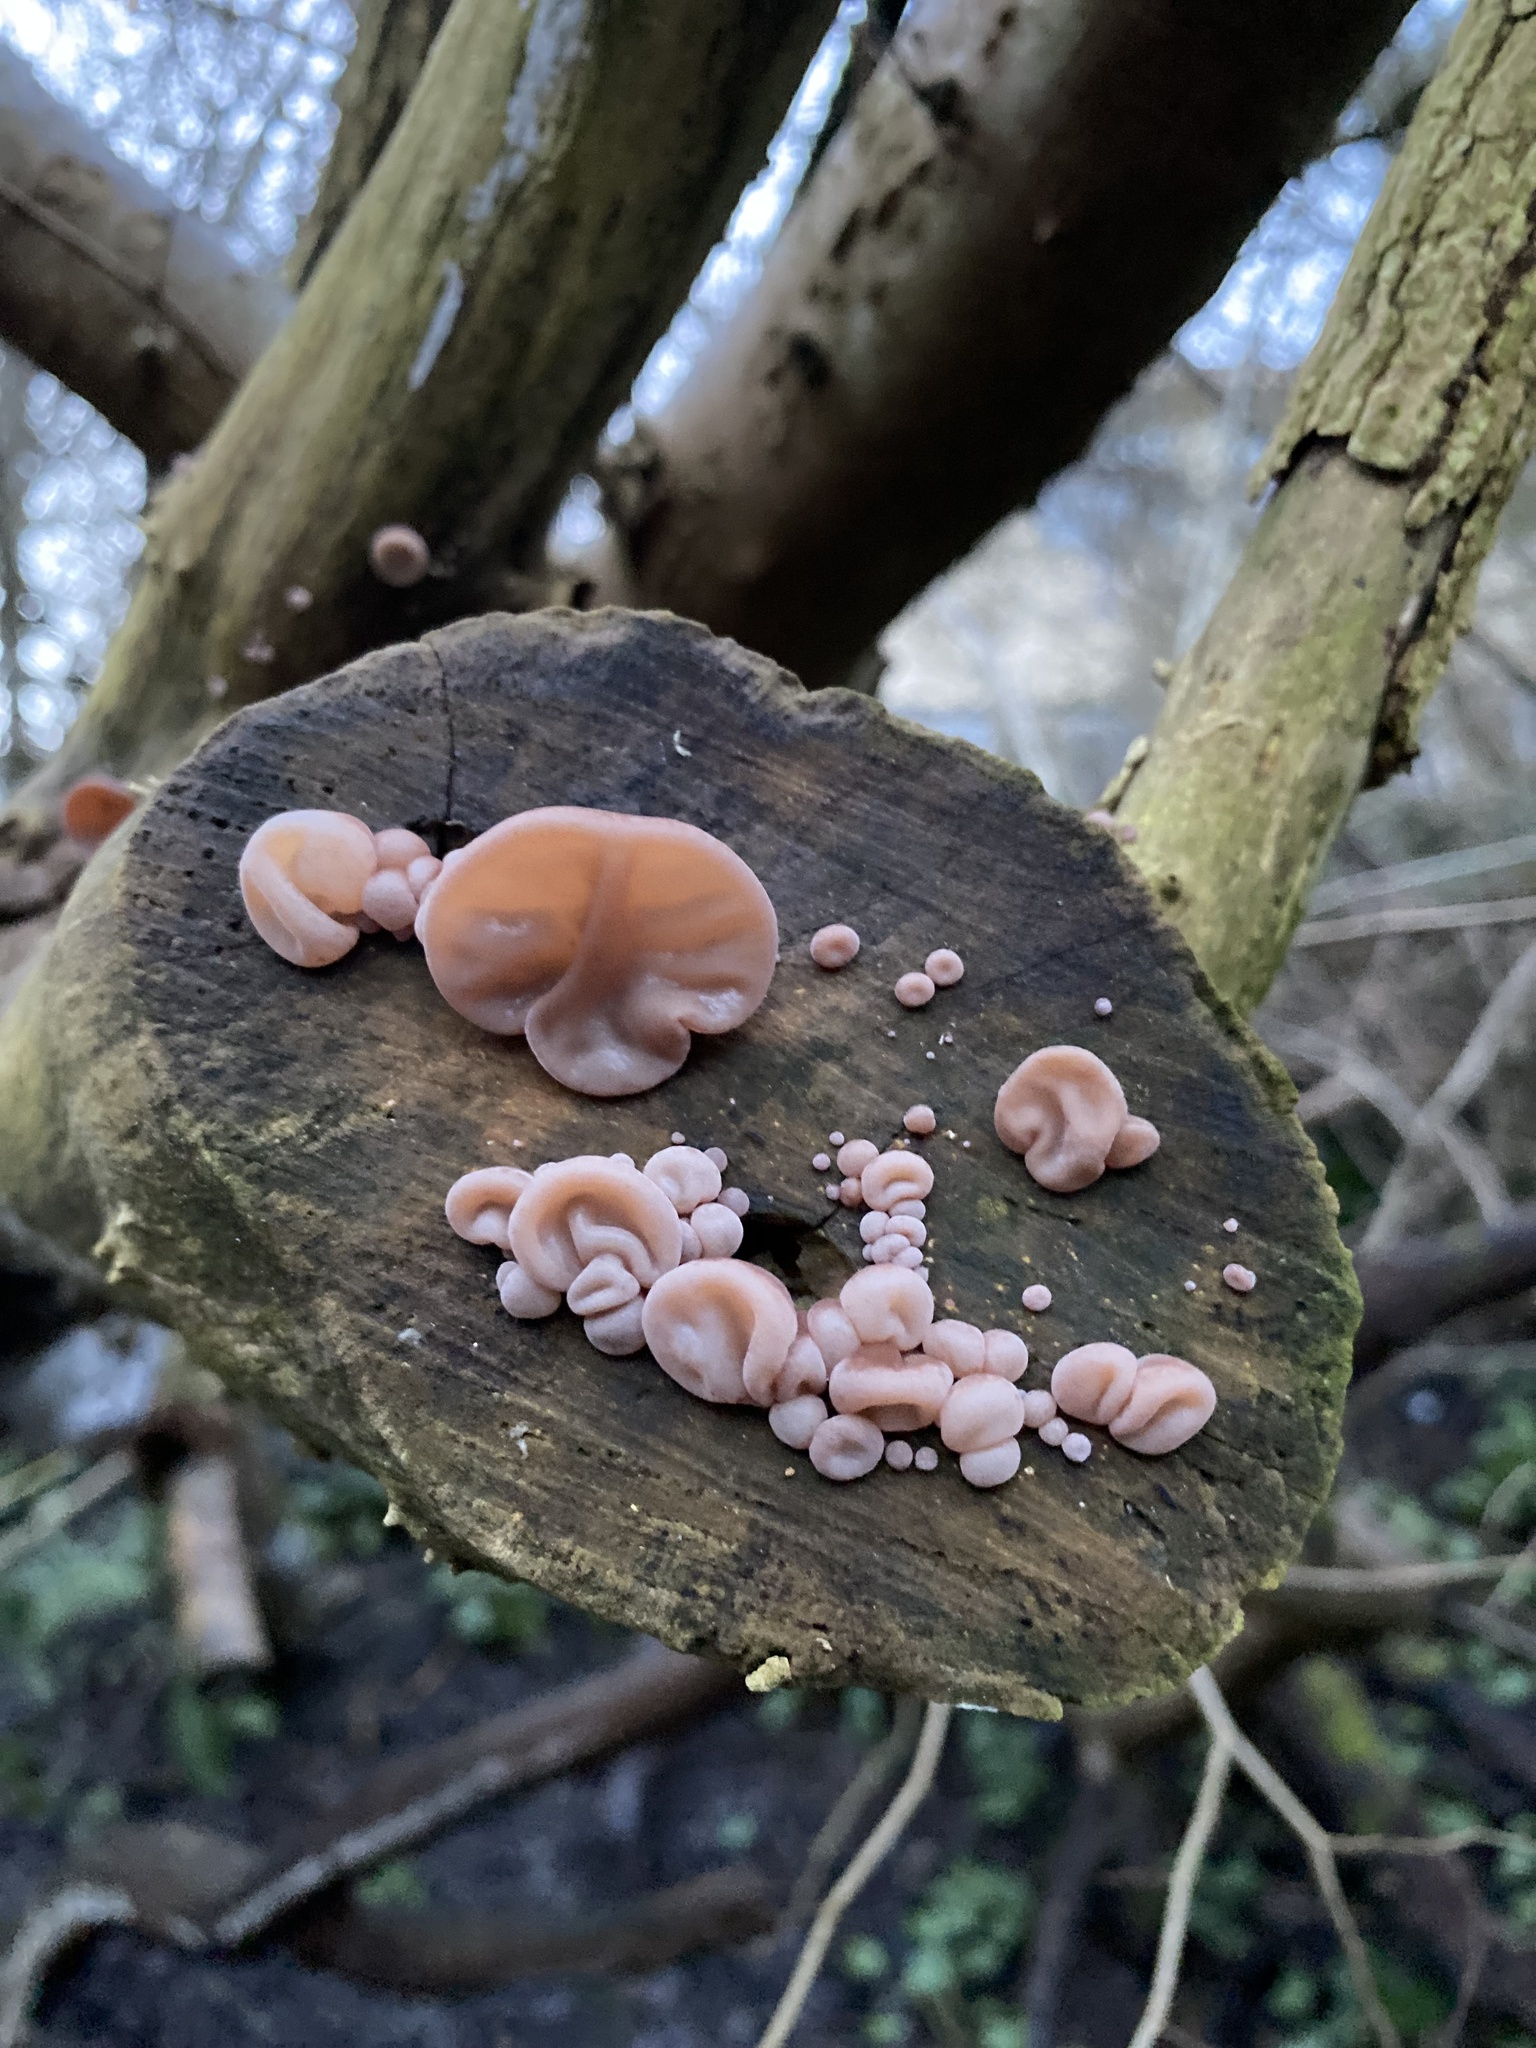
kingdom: Fungi
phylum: Basidiomycota
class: Agaricomycetes
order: Auriculariales
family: Auriculariaceae
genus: Auricularia
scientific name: Auricularia auricula-judae
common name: Jelly ear
